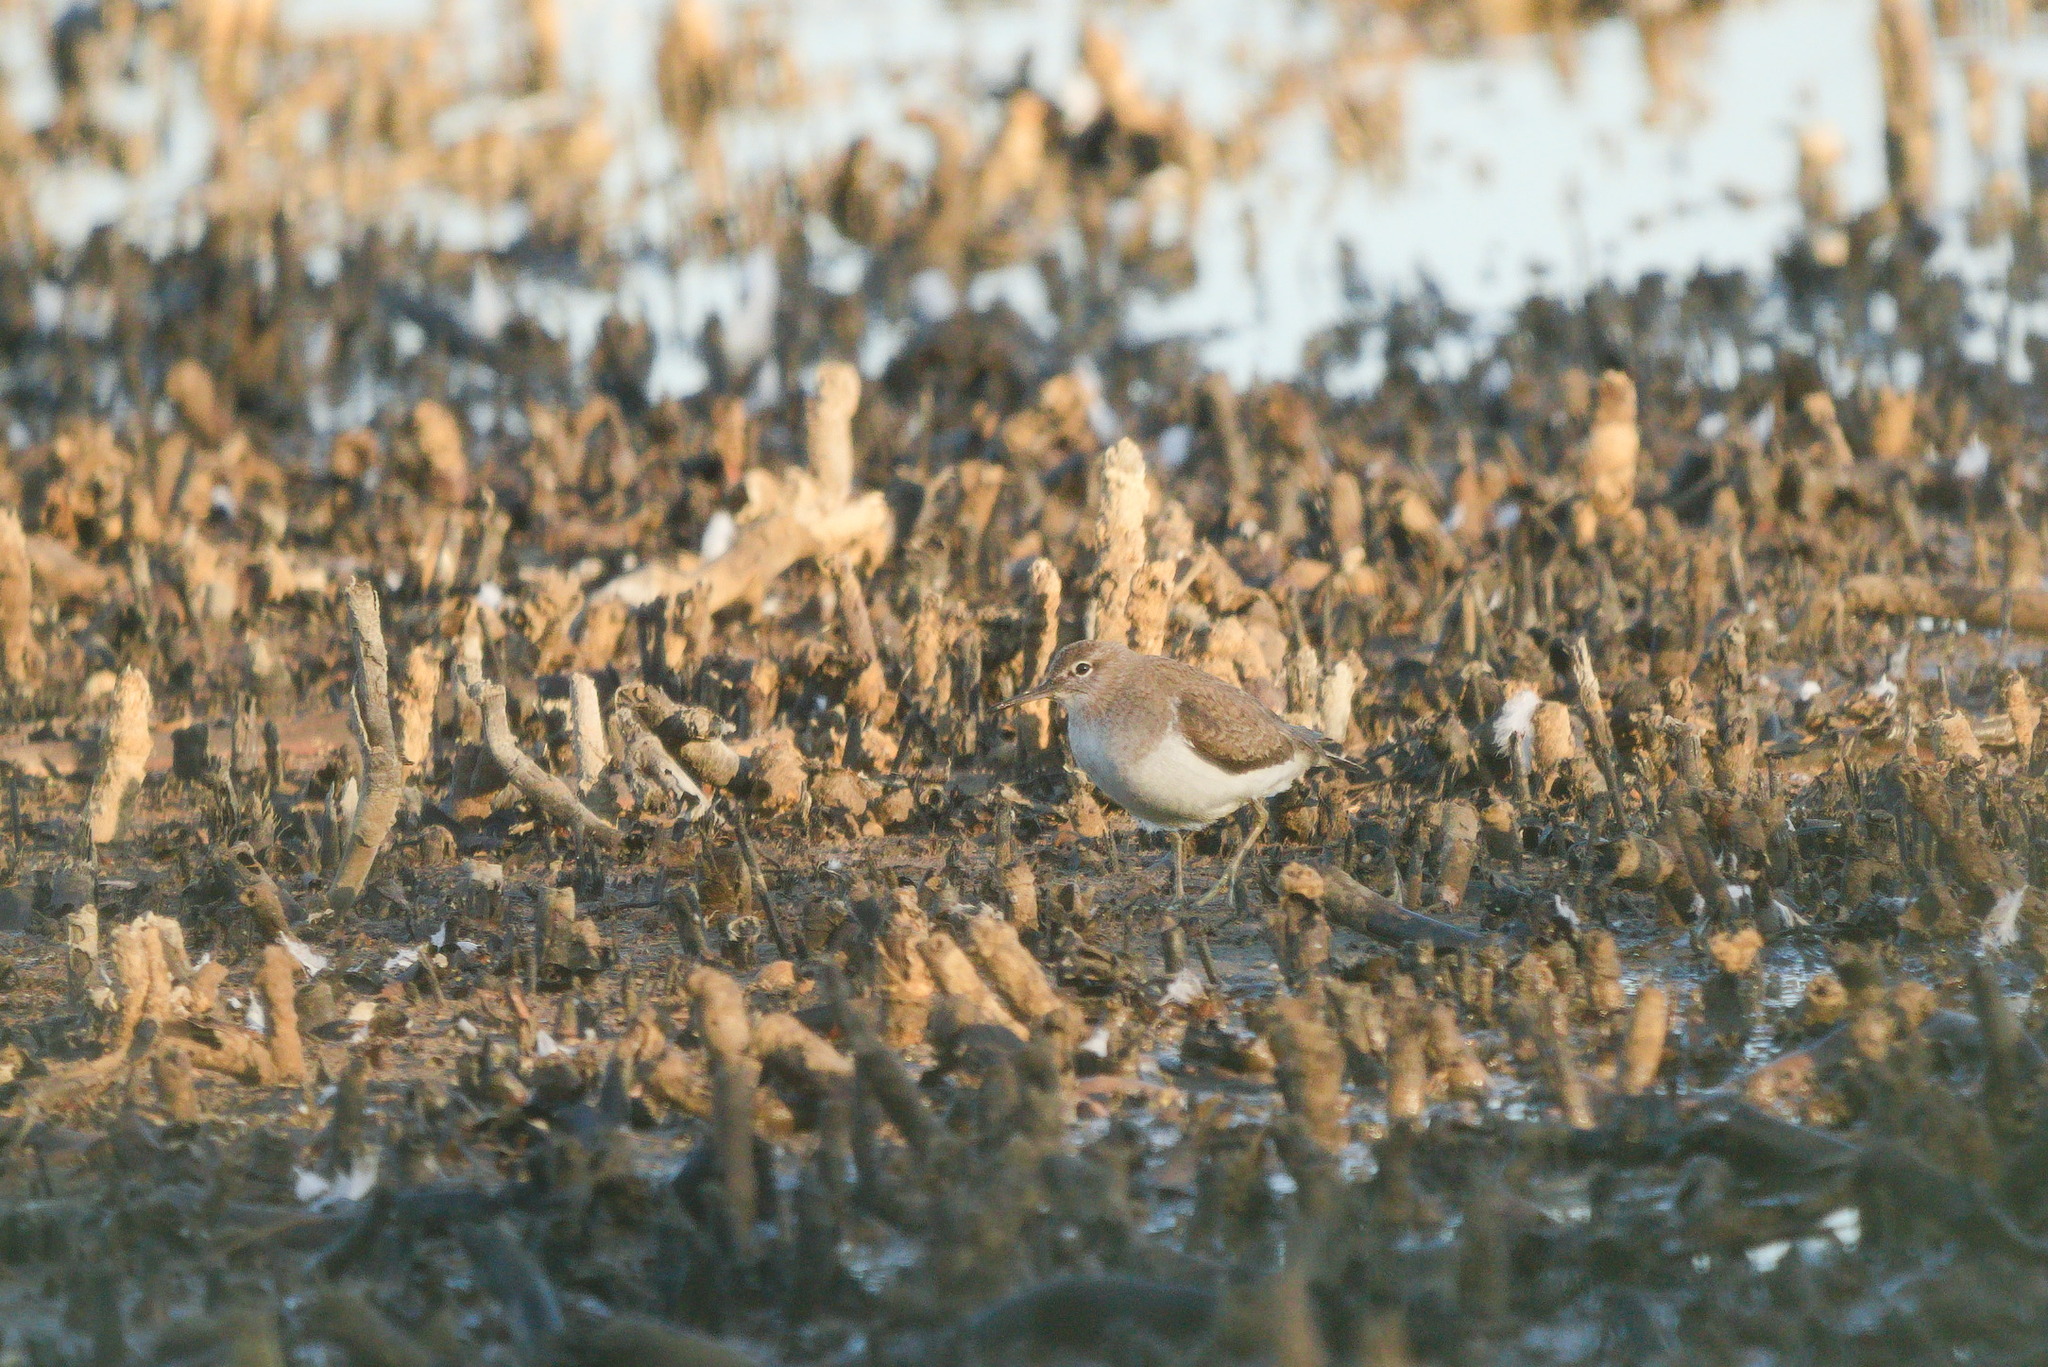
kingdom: Animalia
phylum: Chordata
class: Aves
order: Charadriiformes
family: Scolopacidae
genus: Actitis
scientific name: Actitis hypoleucos
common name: Common sandpiper
